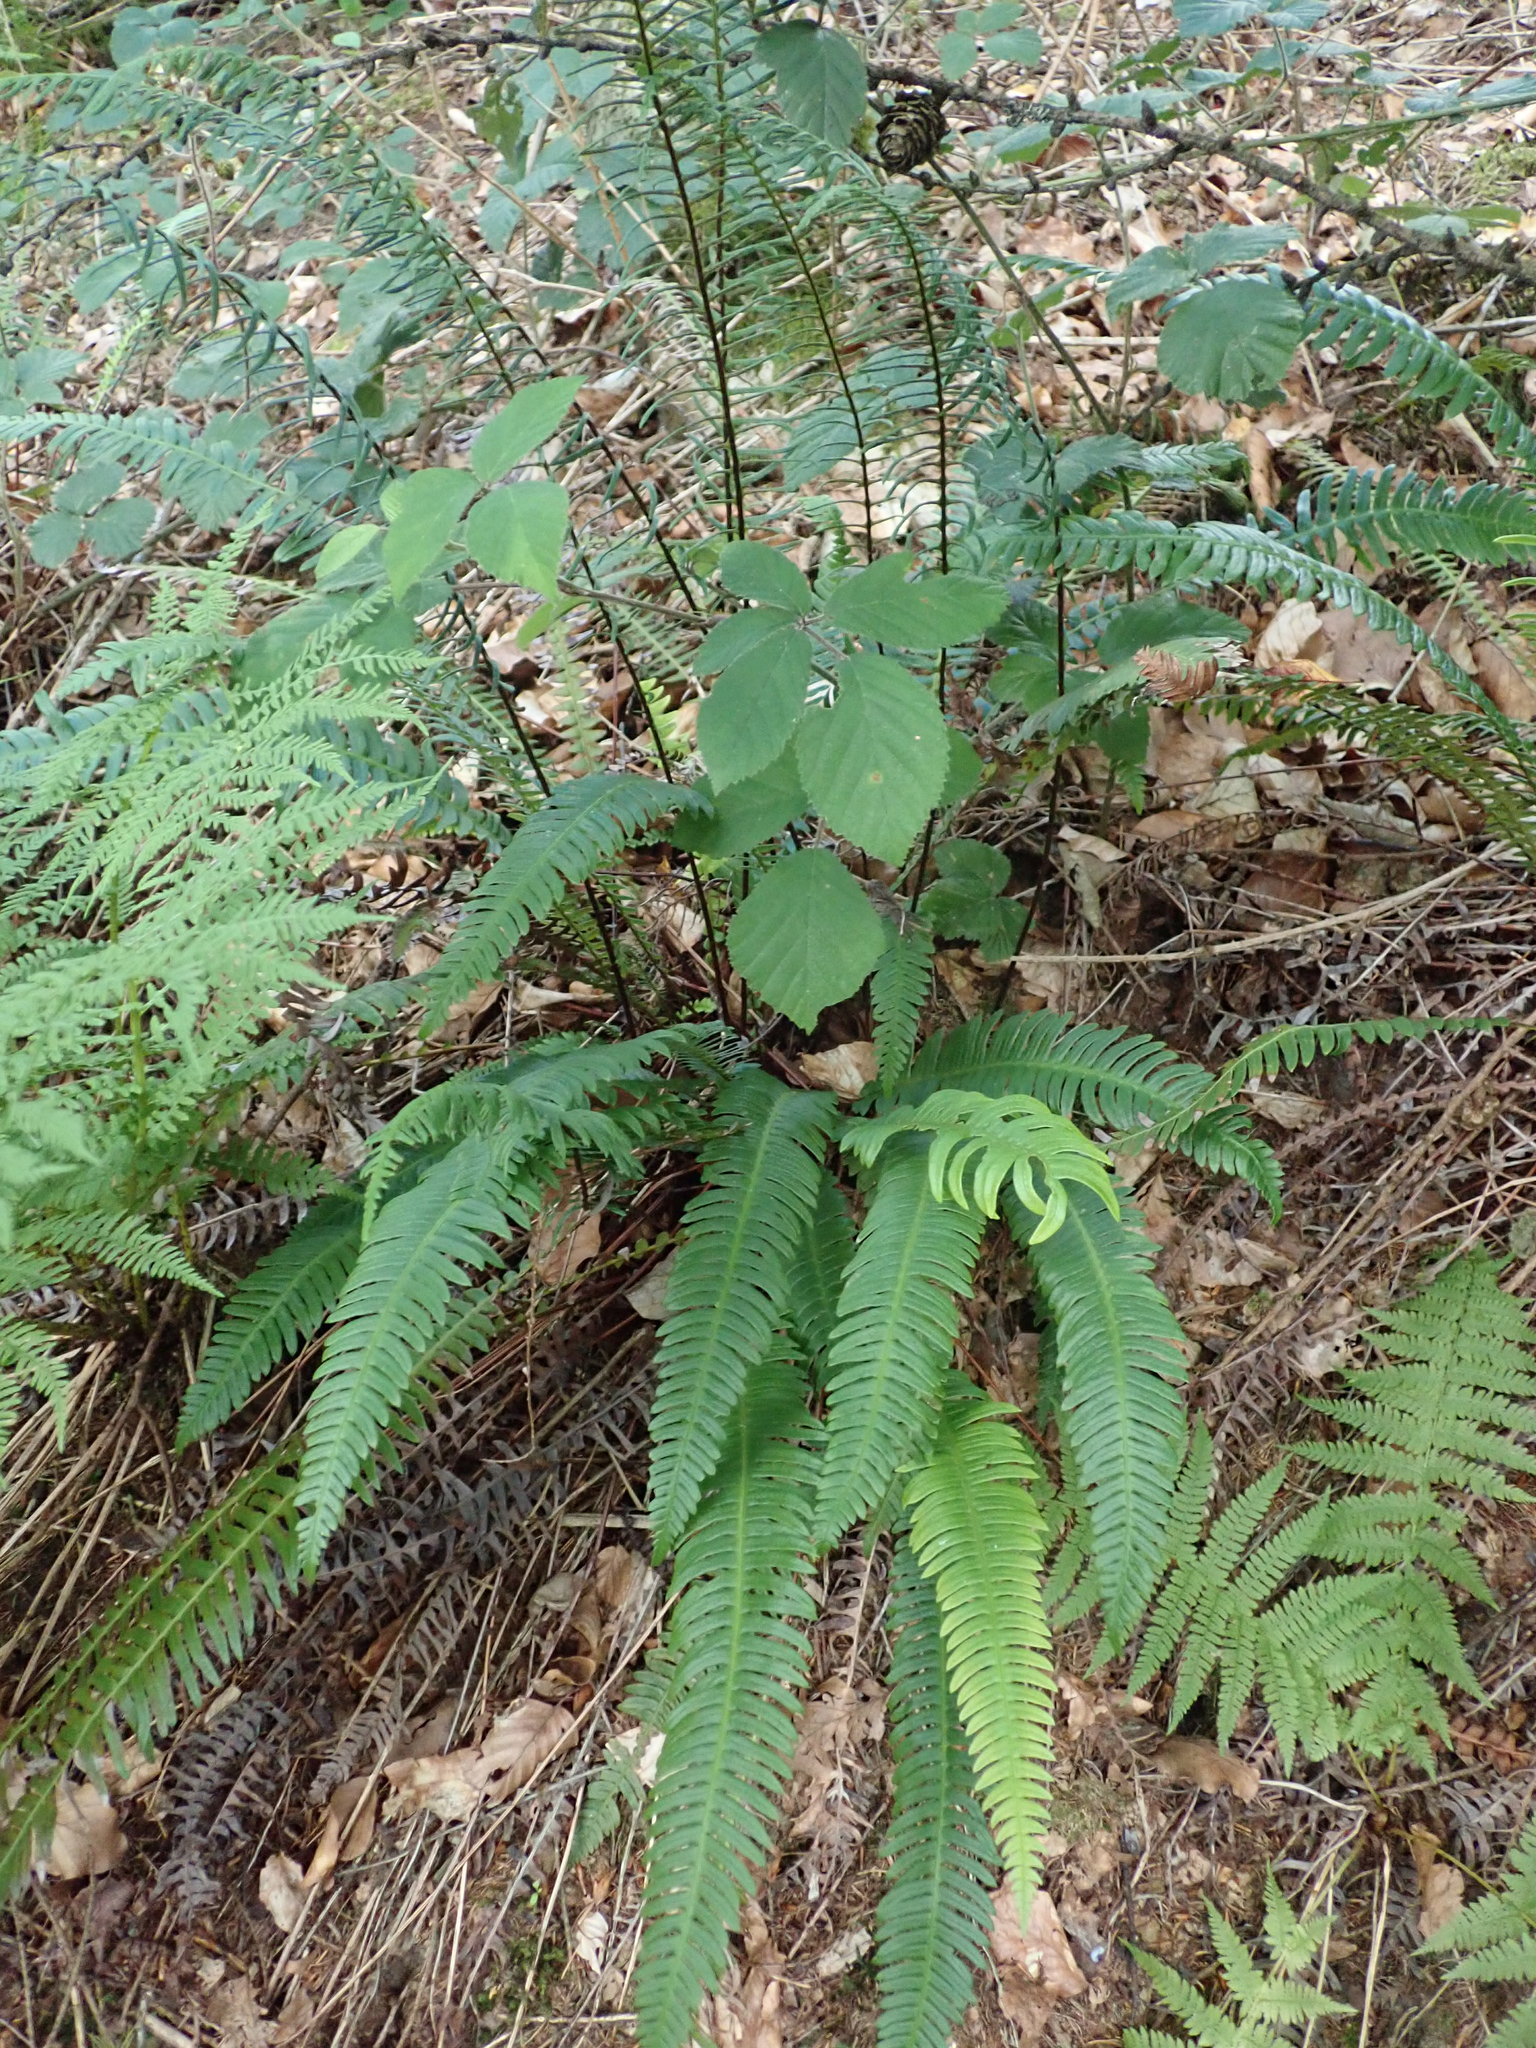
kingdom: Plantae
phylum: Tracheophyta
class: Polypodiopsida
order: Polypodiales
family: Blechnaceae
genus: Struthiopteris
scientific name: Struthiopteris spicant
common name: Deer fern
